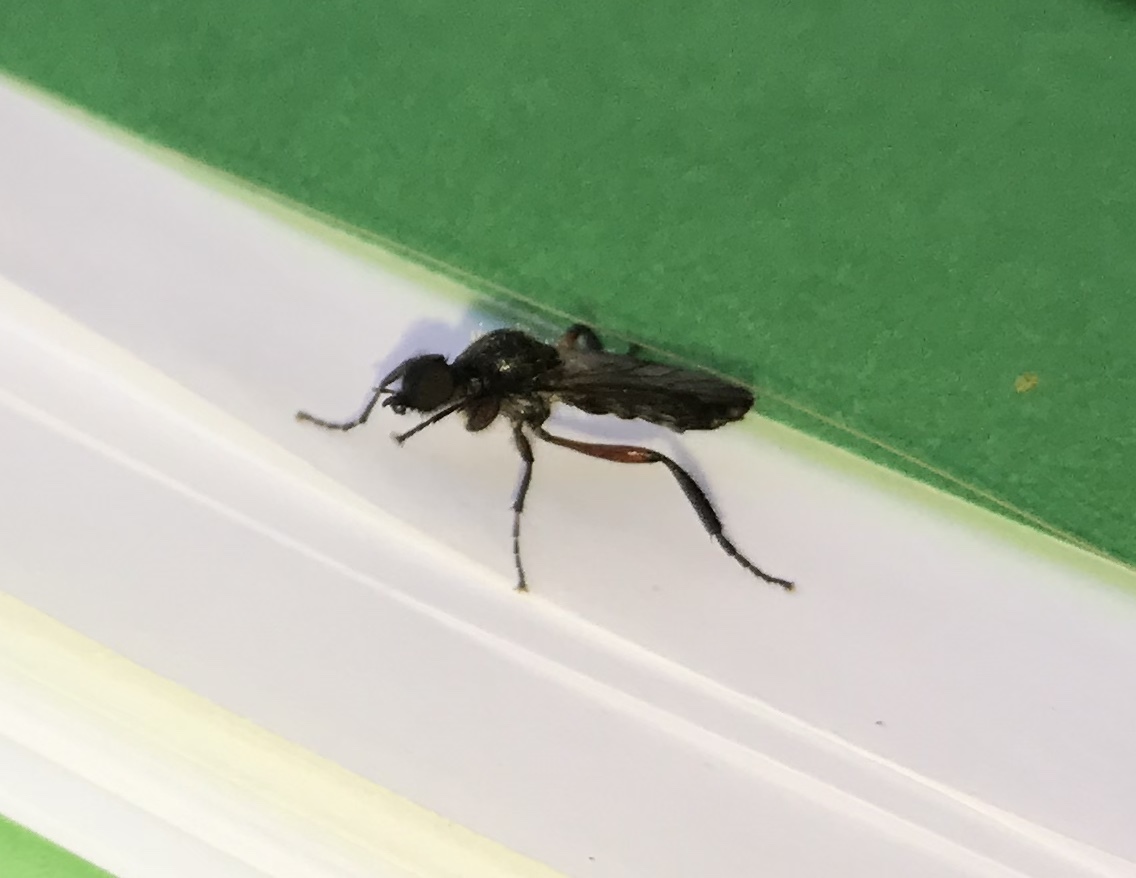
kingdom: Animalia
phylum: Arthropoda
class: Insecta
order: Diptera
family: Bibionidae
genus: Bibio
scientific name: Bibio femoratus
